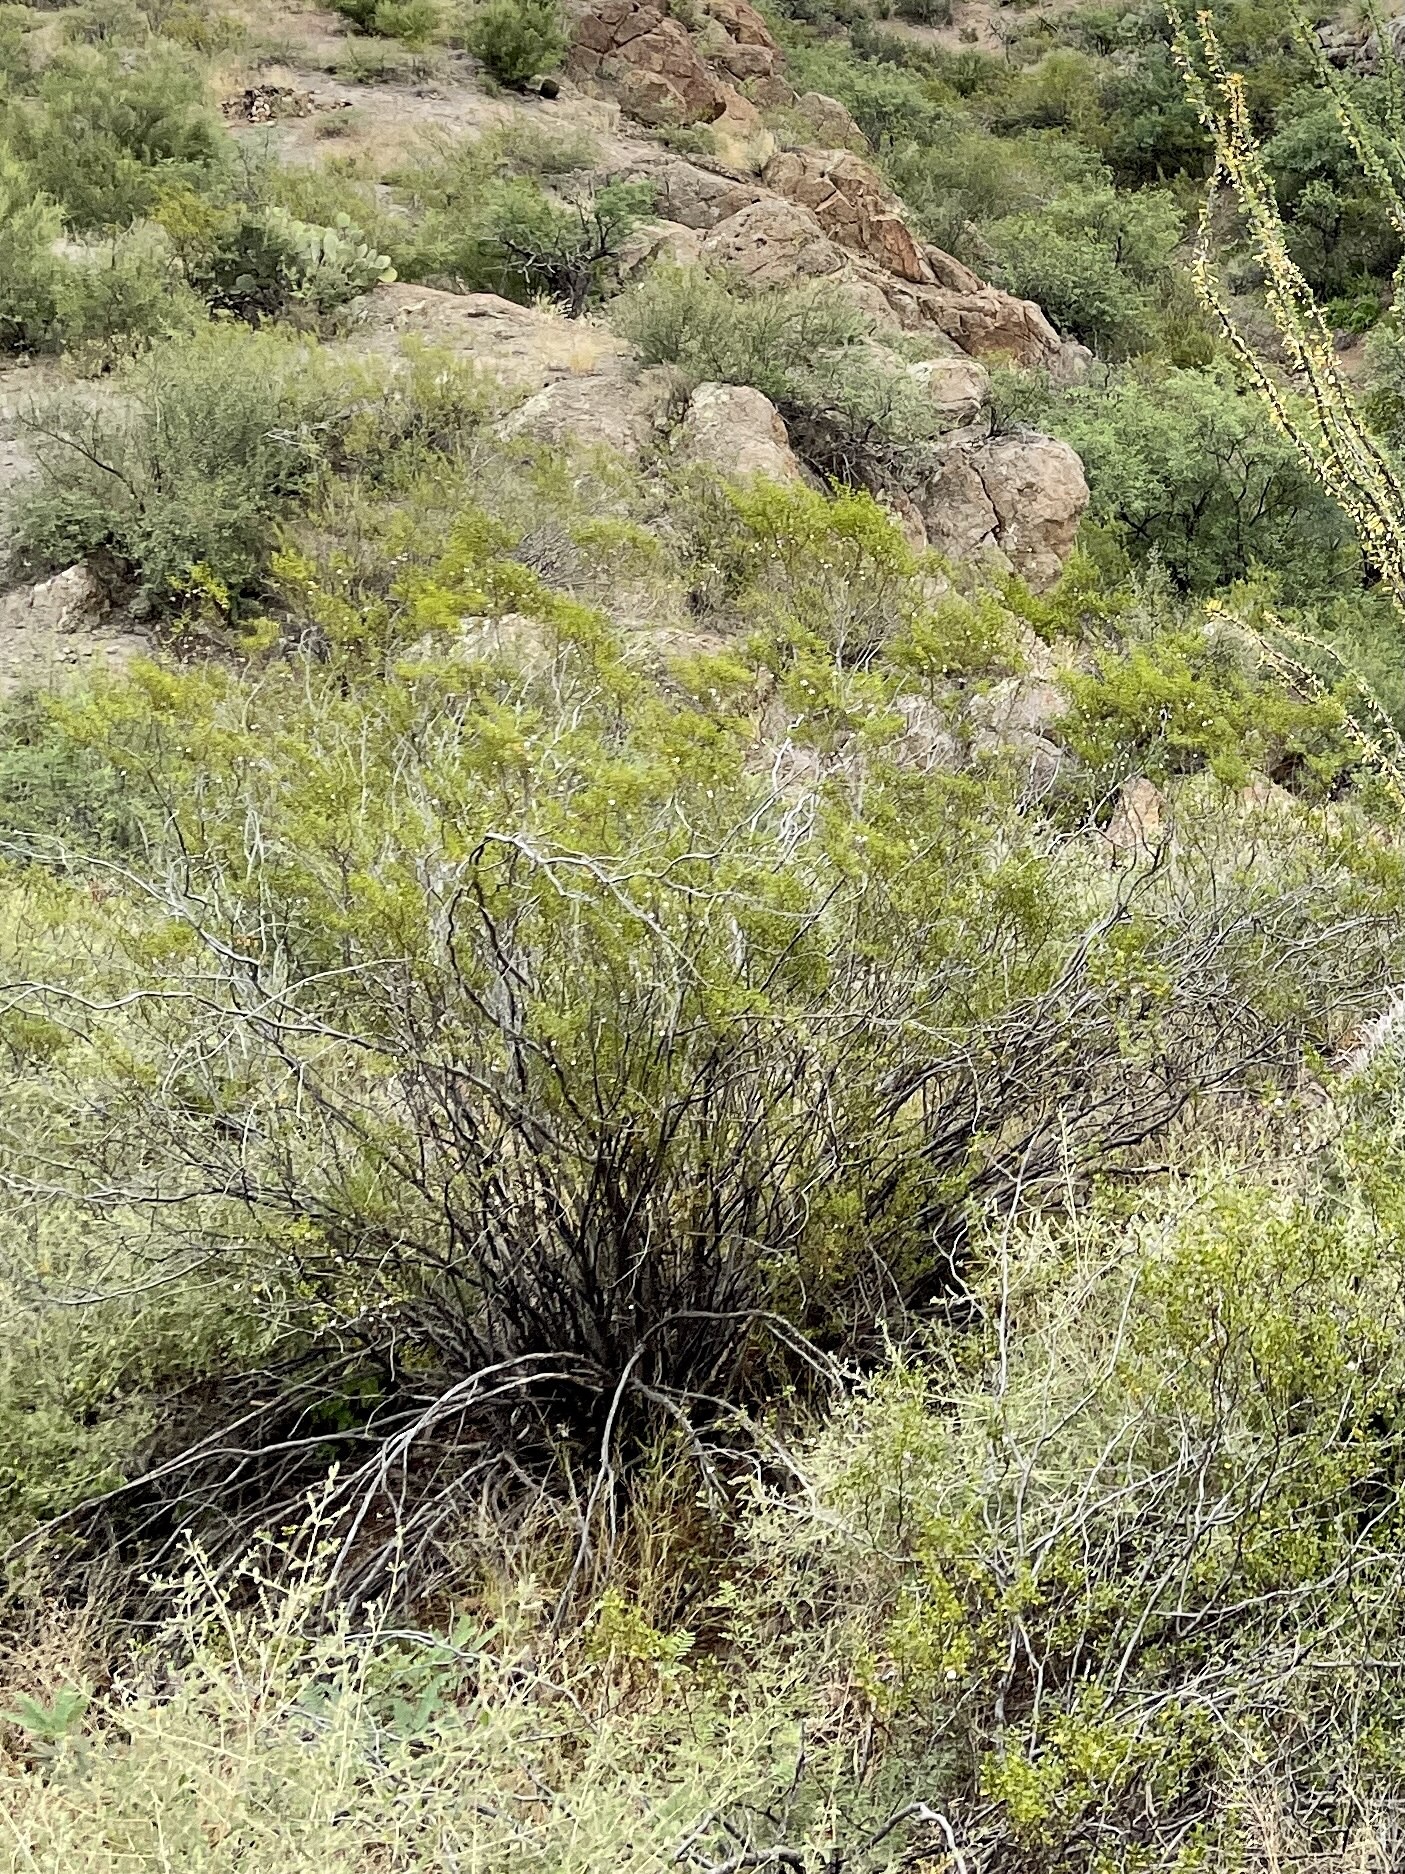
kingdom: Plantae
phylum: Tracheophyta
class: Magnoliopsida
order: Zygophyllales
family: Zygophyllaceae
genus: Larrea
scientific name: Larrea tridentata
